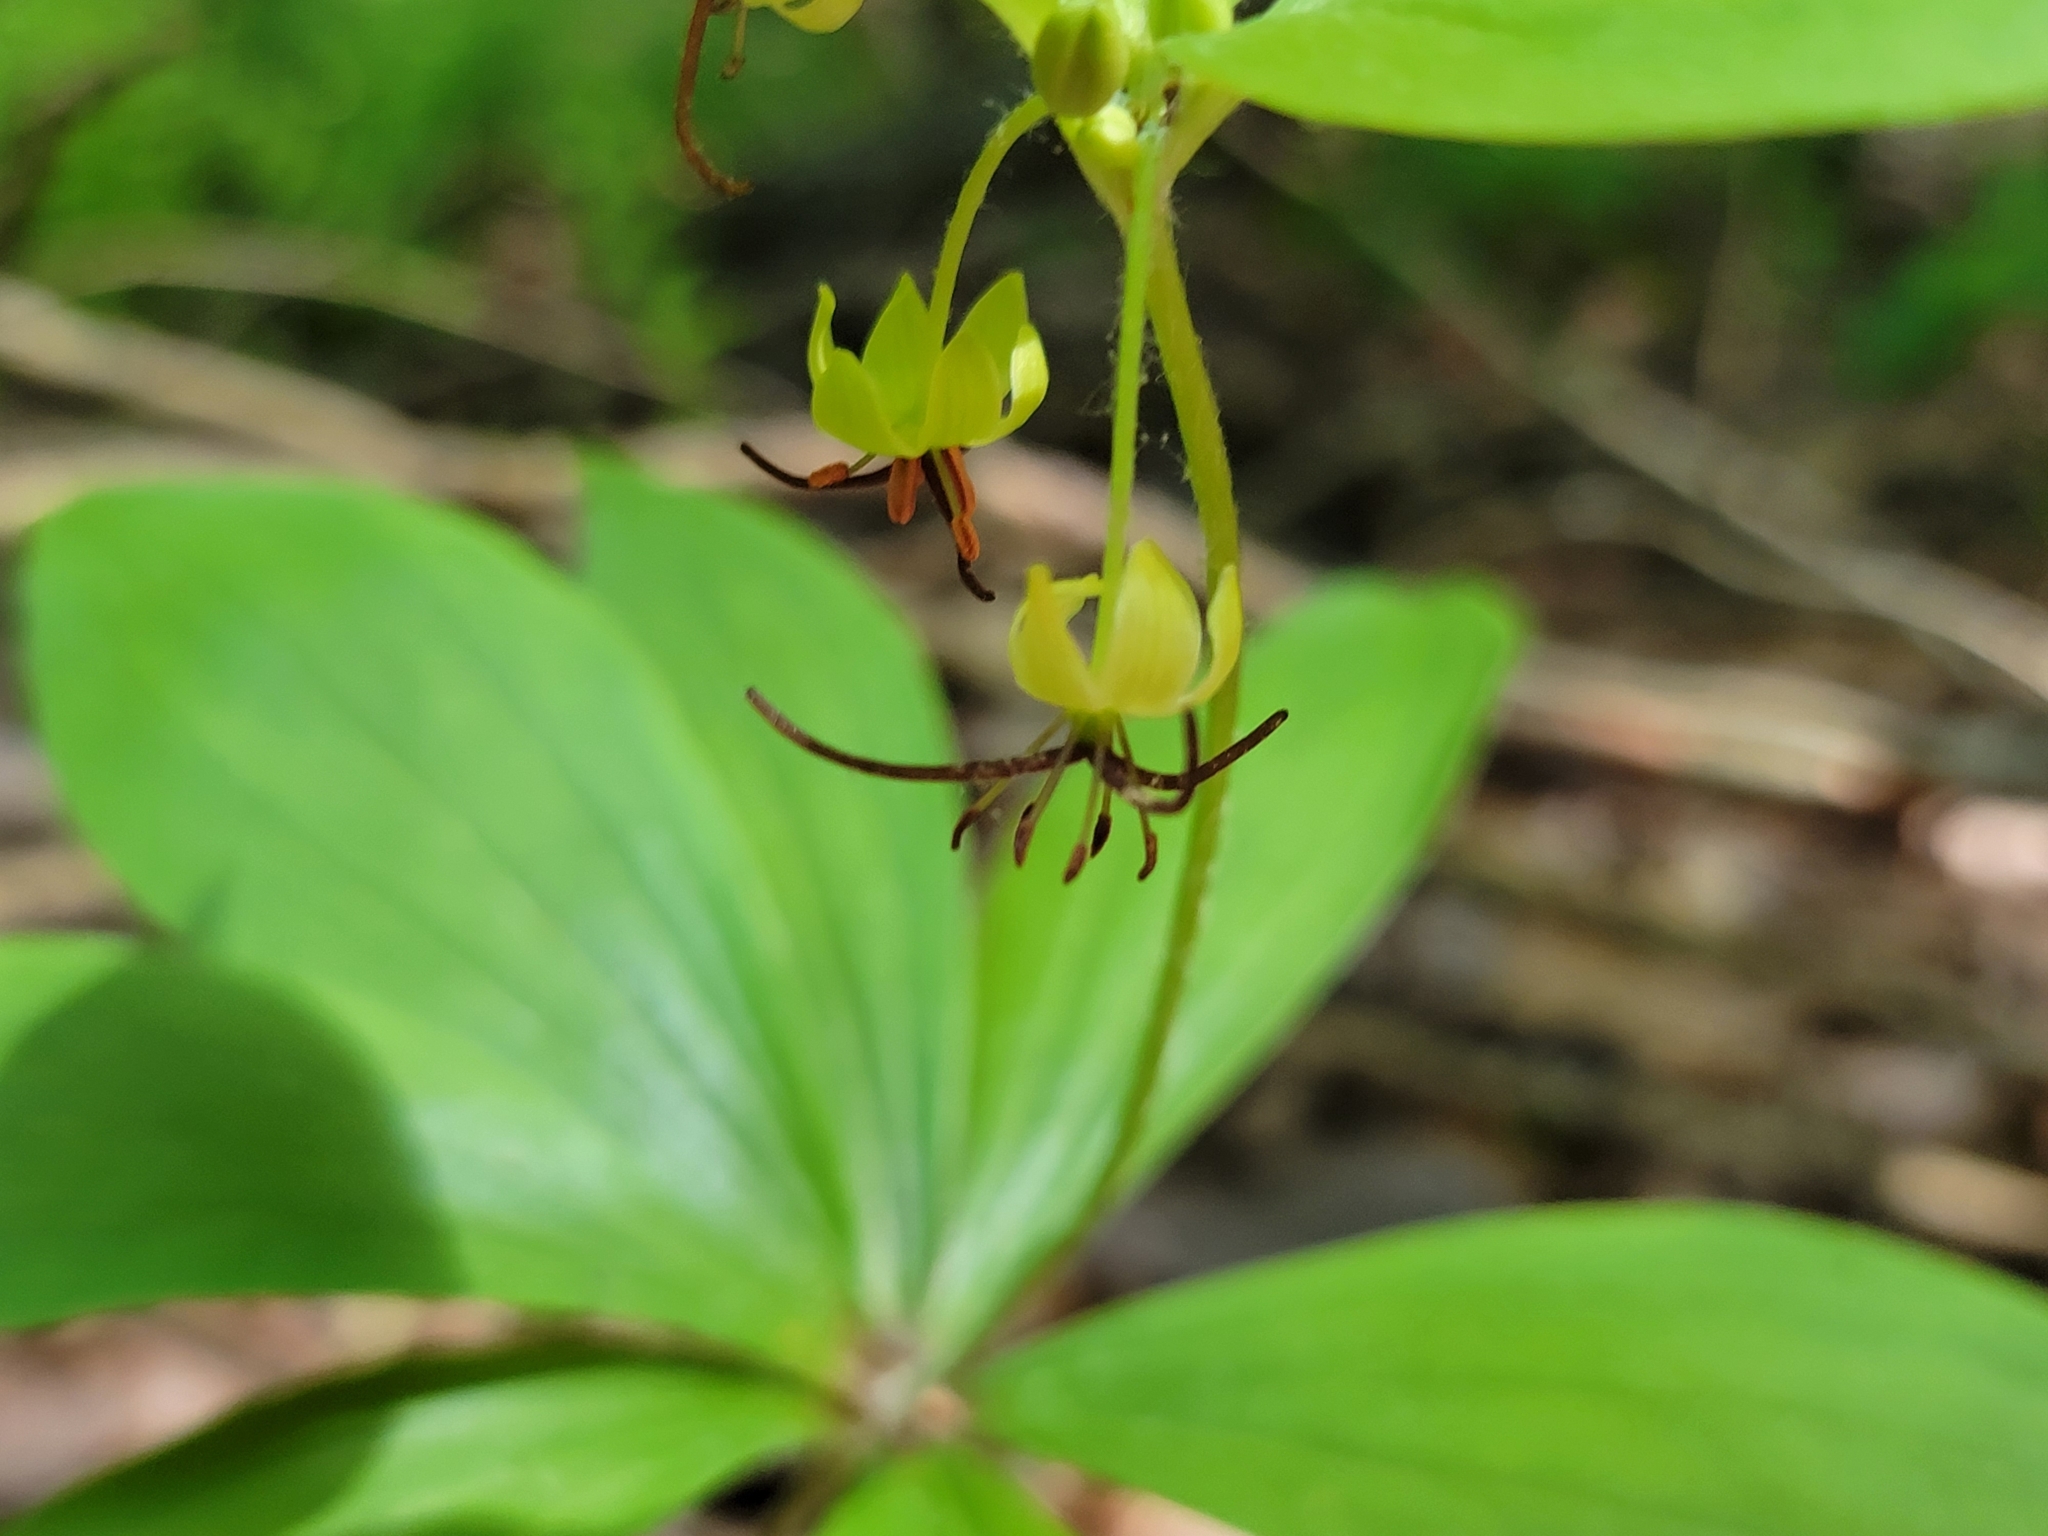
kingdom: Plantae
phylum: Tracheophyta
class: Liliopsida
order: Liliales
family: Liliaceae
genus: Medeola
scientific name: Medeola virginiana
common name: Indian cucumber-root
